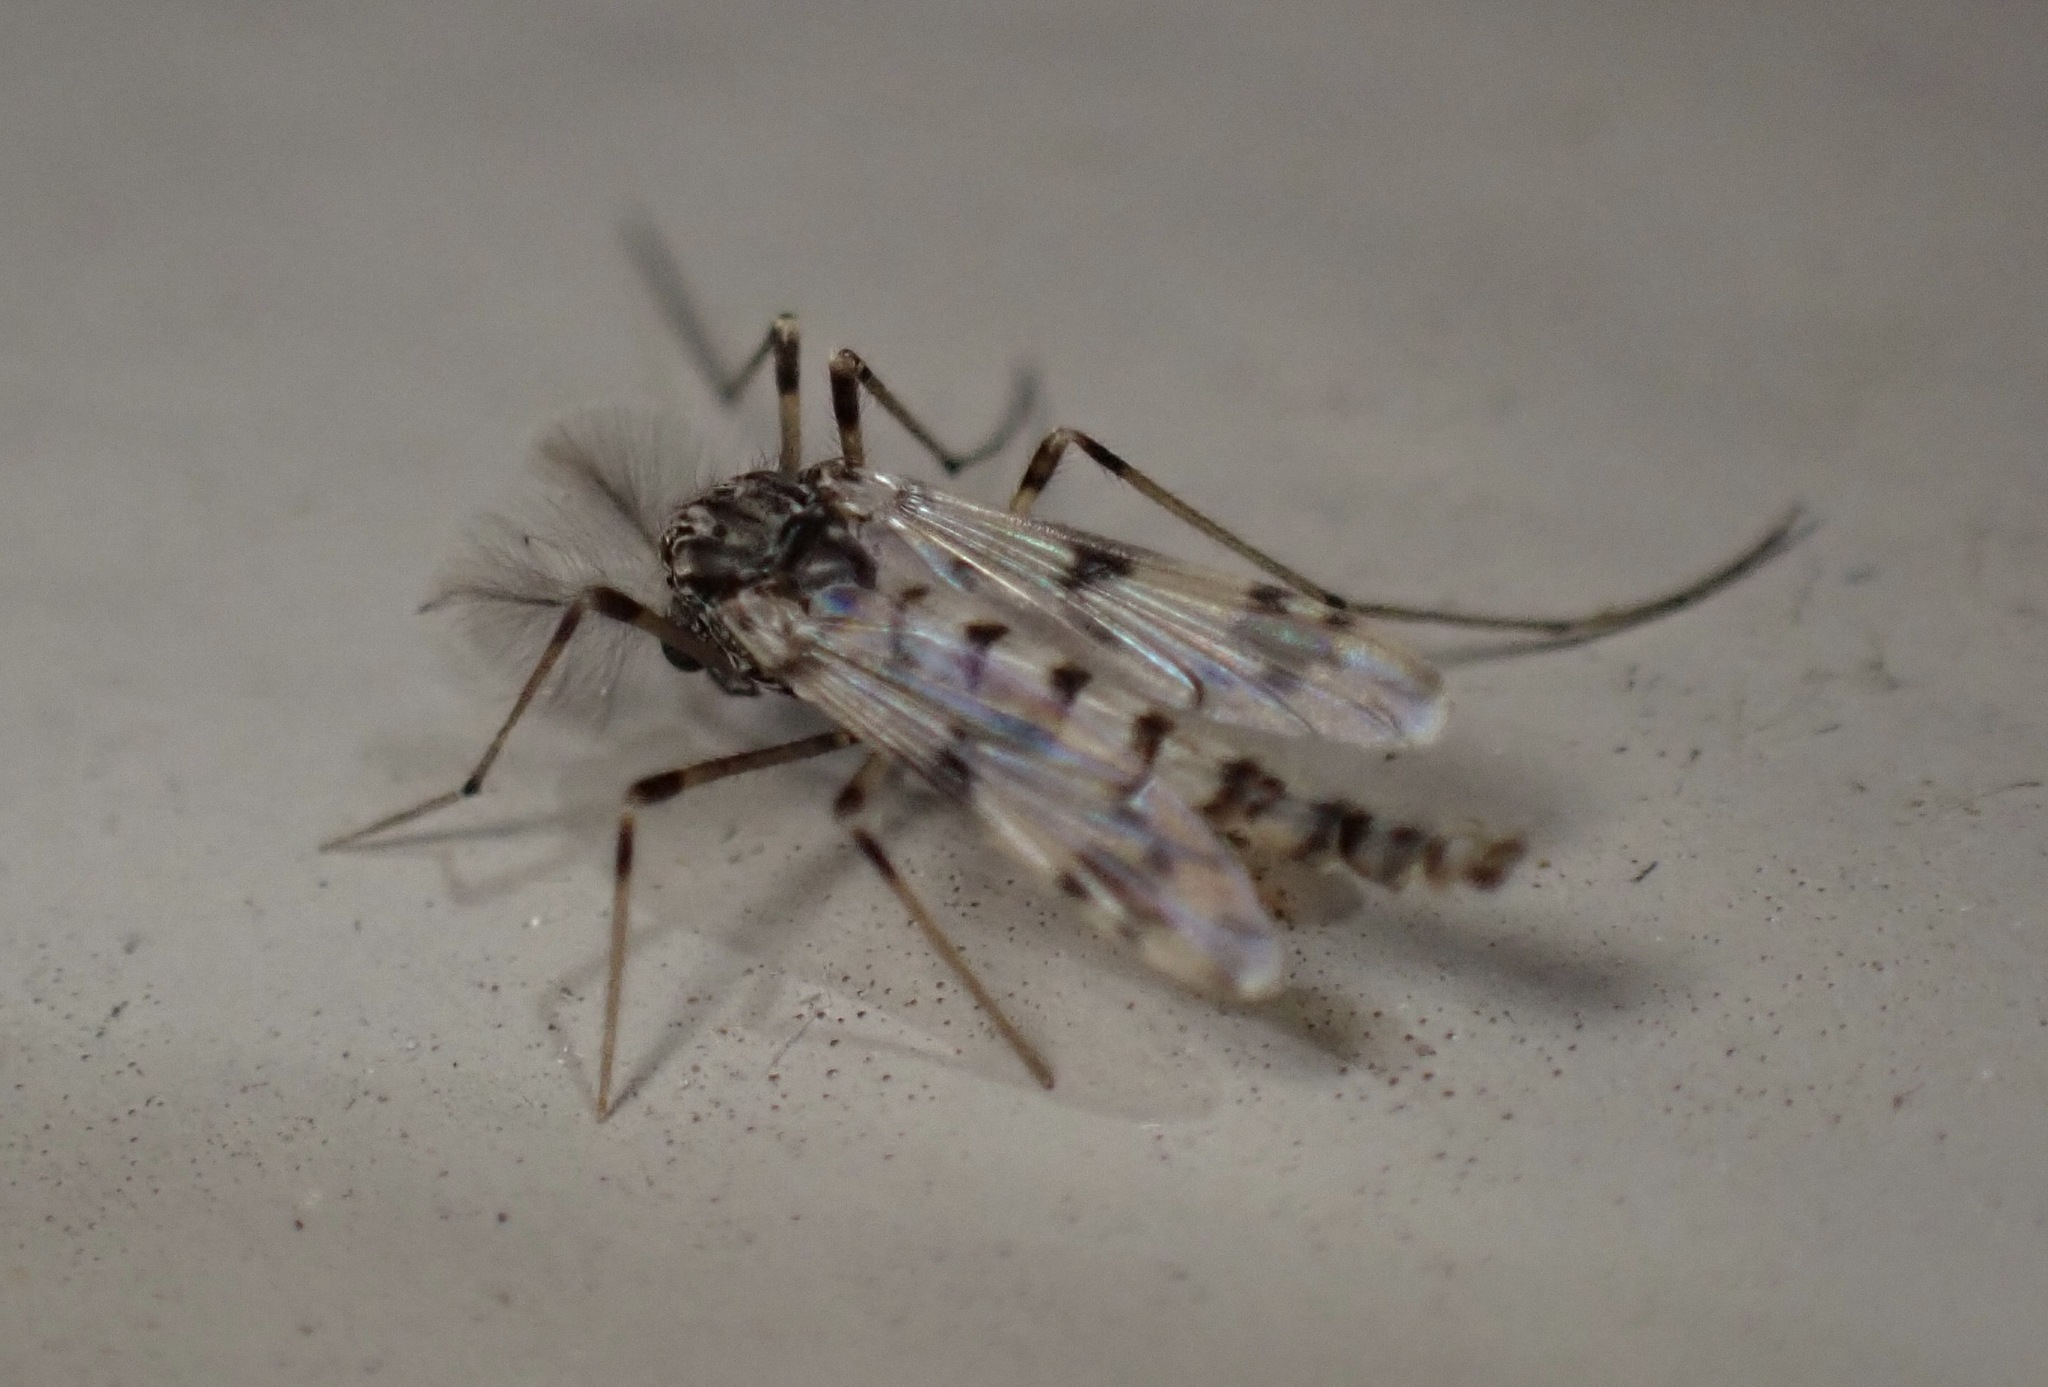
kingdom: Animalia
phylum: Arthropoda
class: Insecta
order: Diptera
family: Chironomidae
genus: Alotanypus
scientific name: Alotanypus venusta
